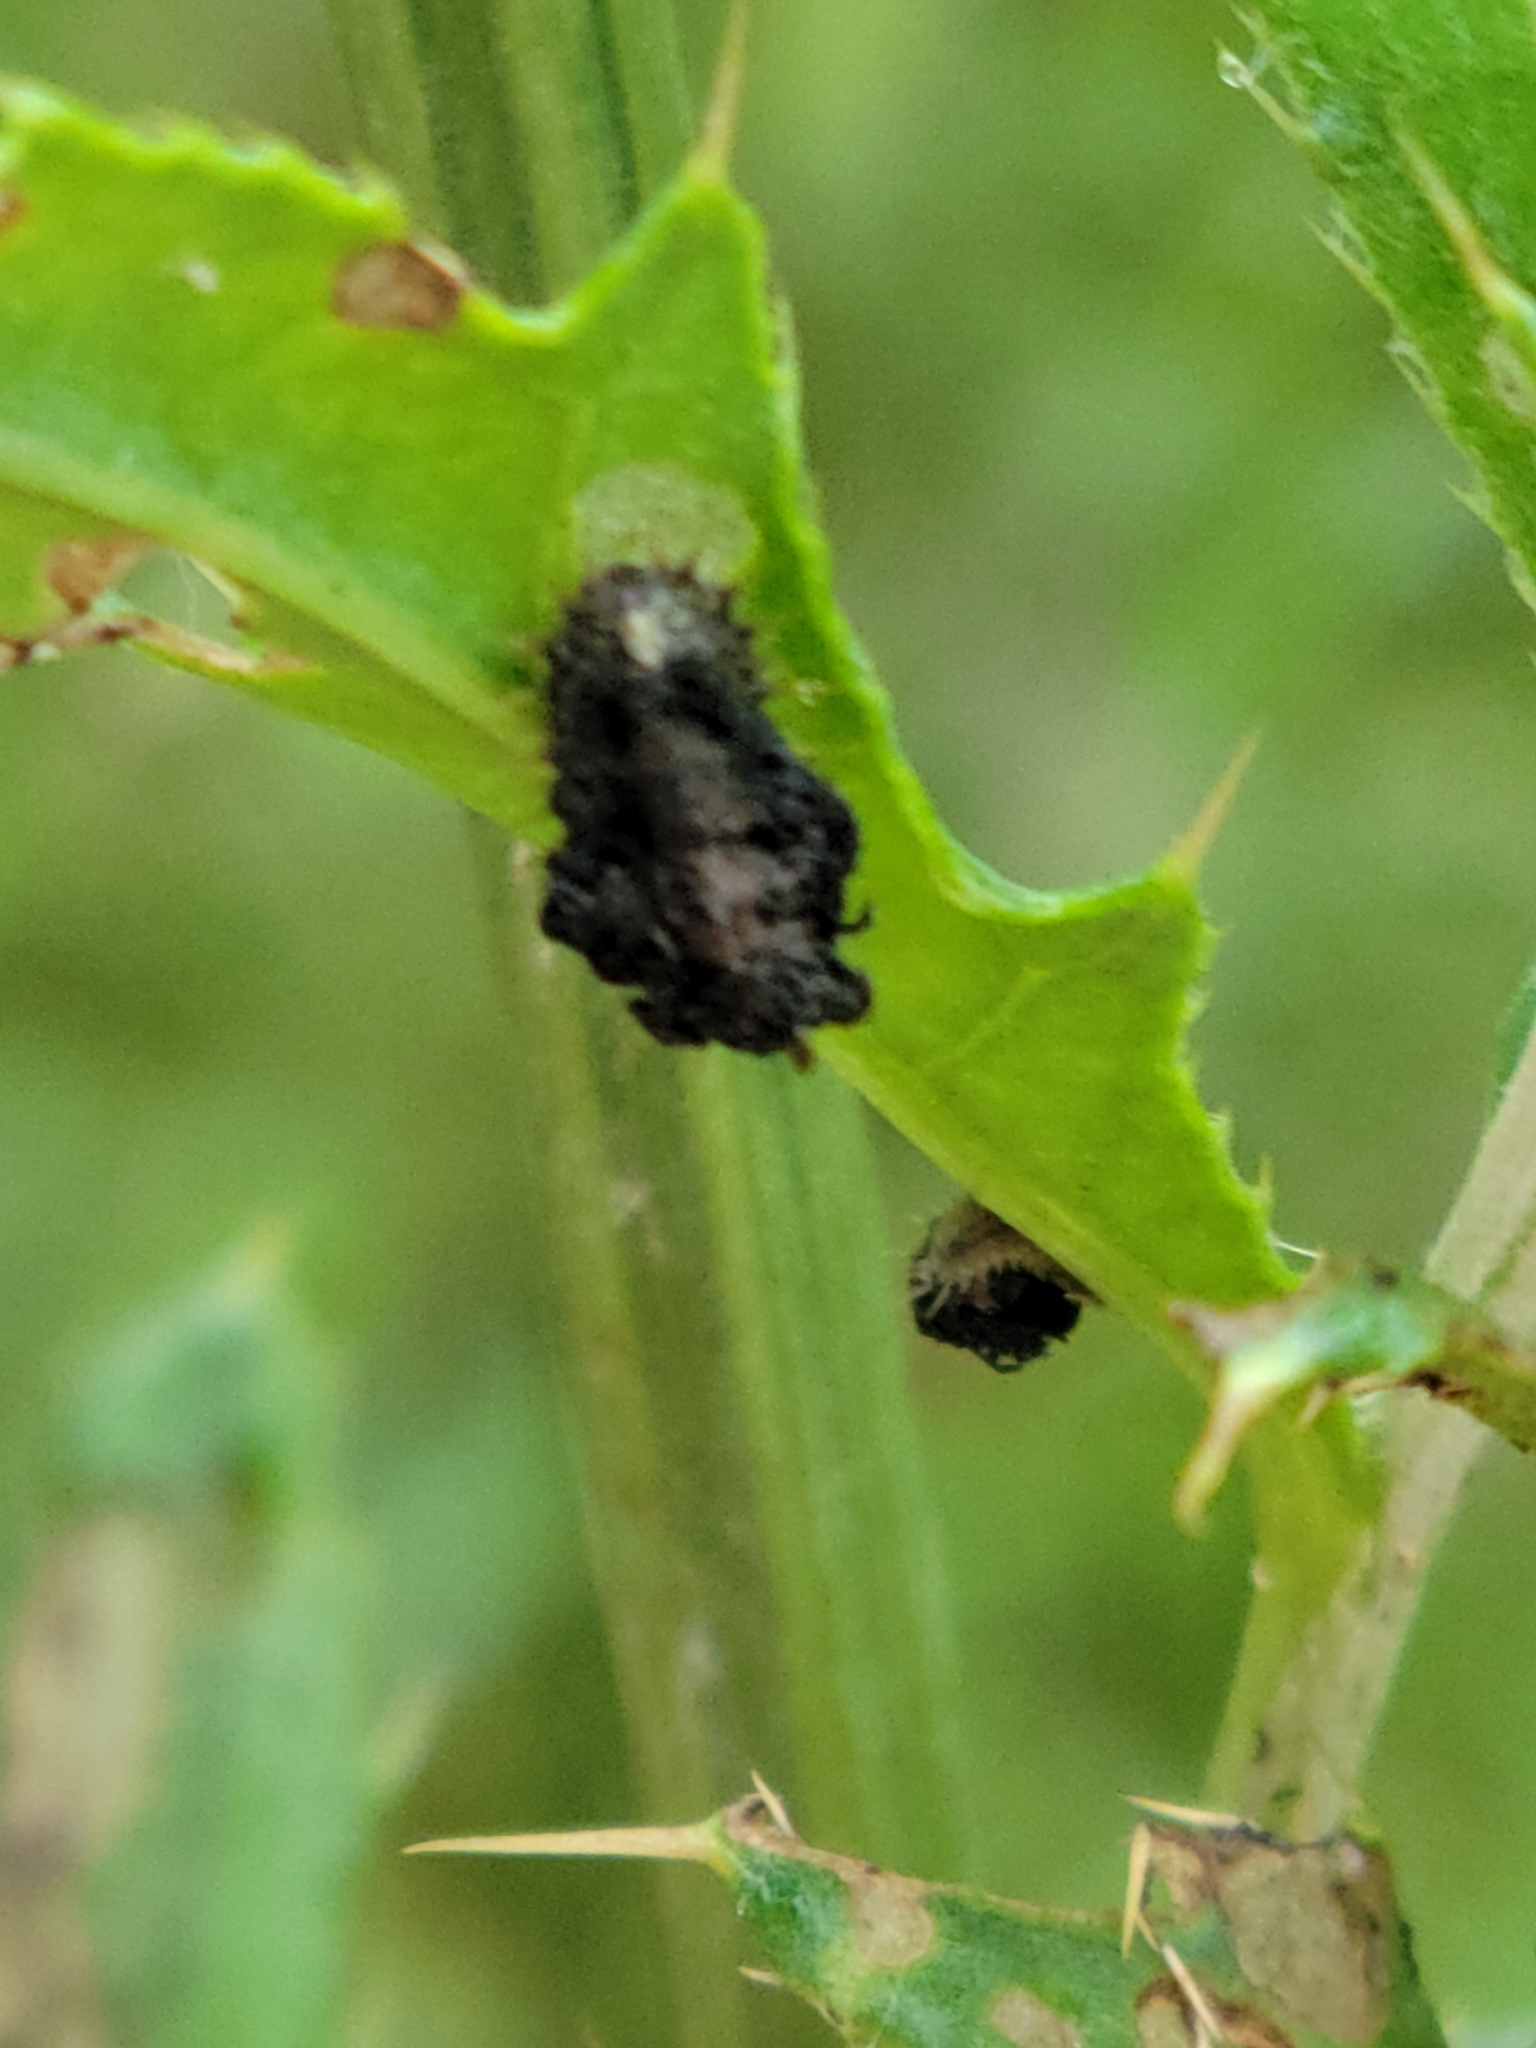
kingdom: Animalia
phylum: Arthropoda
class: Insecta
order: Coleoptera
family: Chrysomelidae
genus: Cassida
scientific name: Cassida rubiginosa
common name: Thistle tortoise beetle
